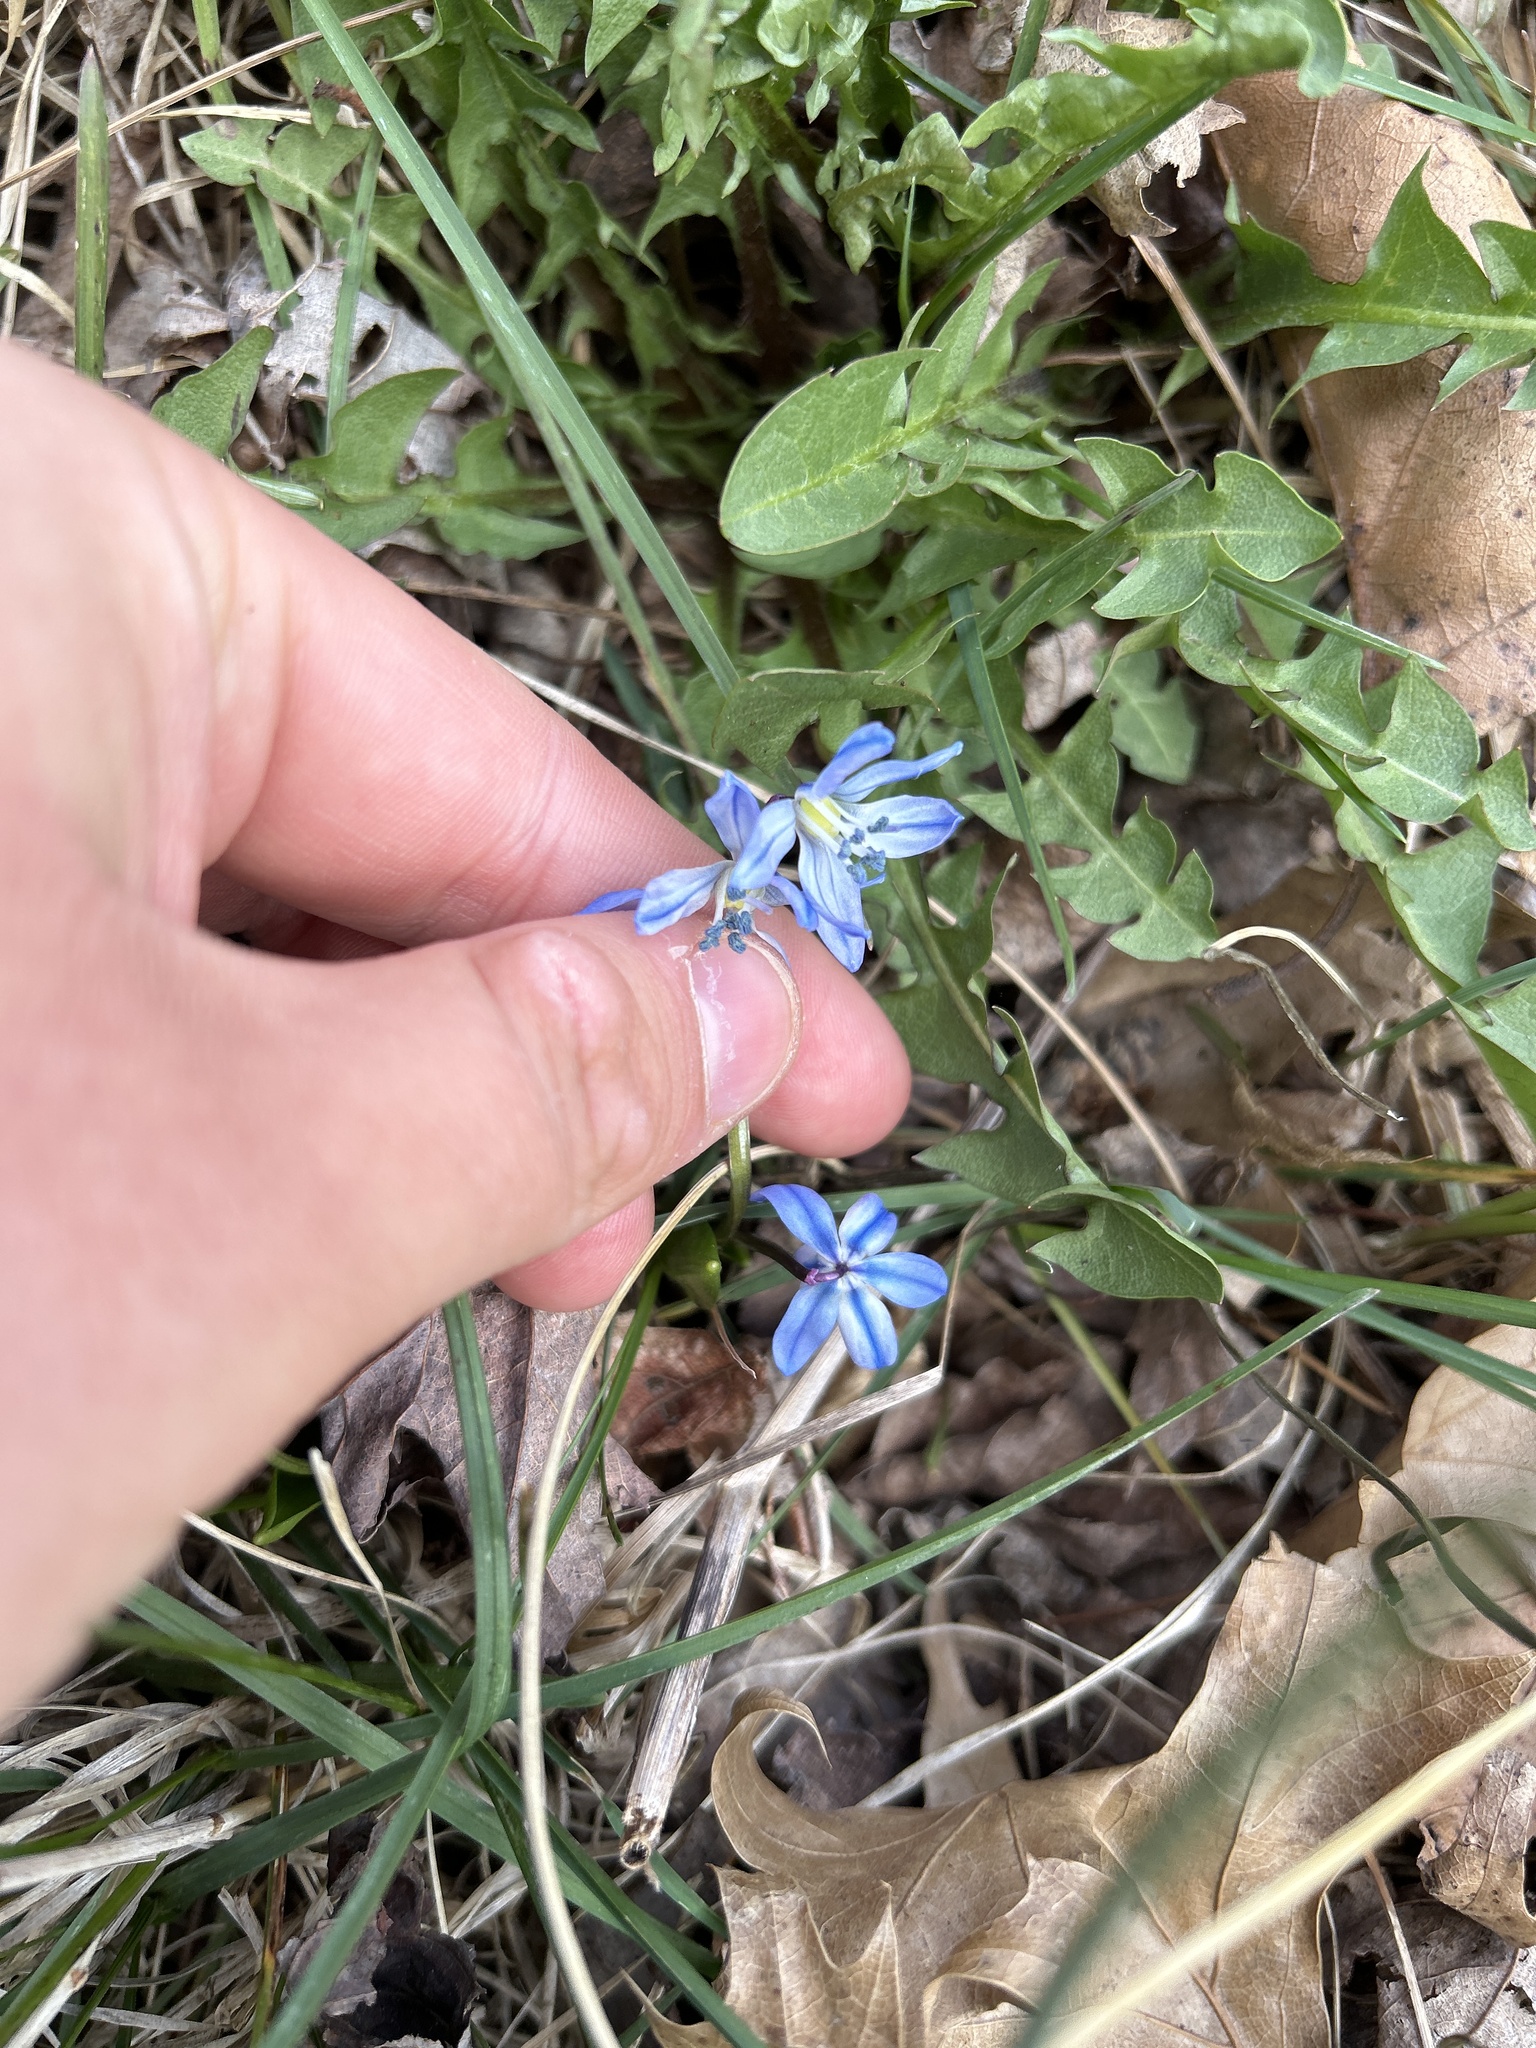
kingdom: Plantae
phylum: Tracheophyta
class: Liliopsida
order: Asparagales
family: Asparagaceae
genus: Scilla
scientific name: Scilla siberica
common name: Siberian squill
